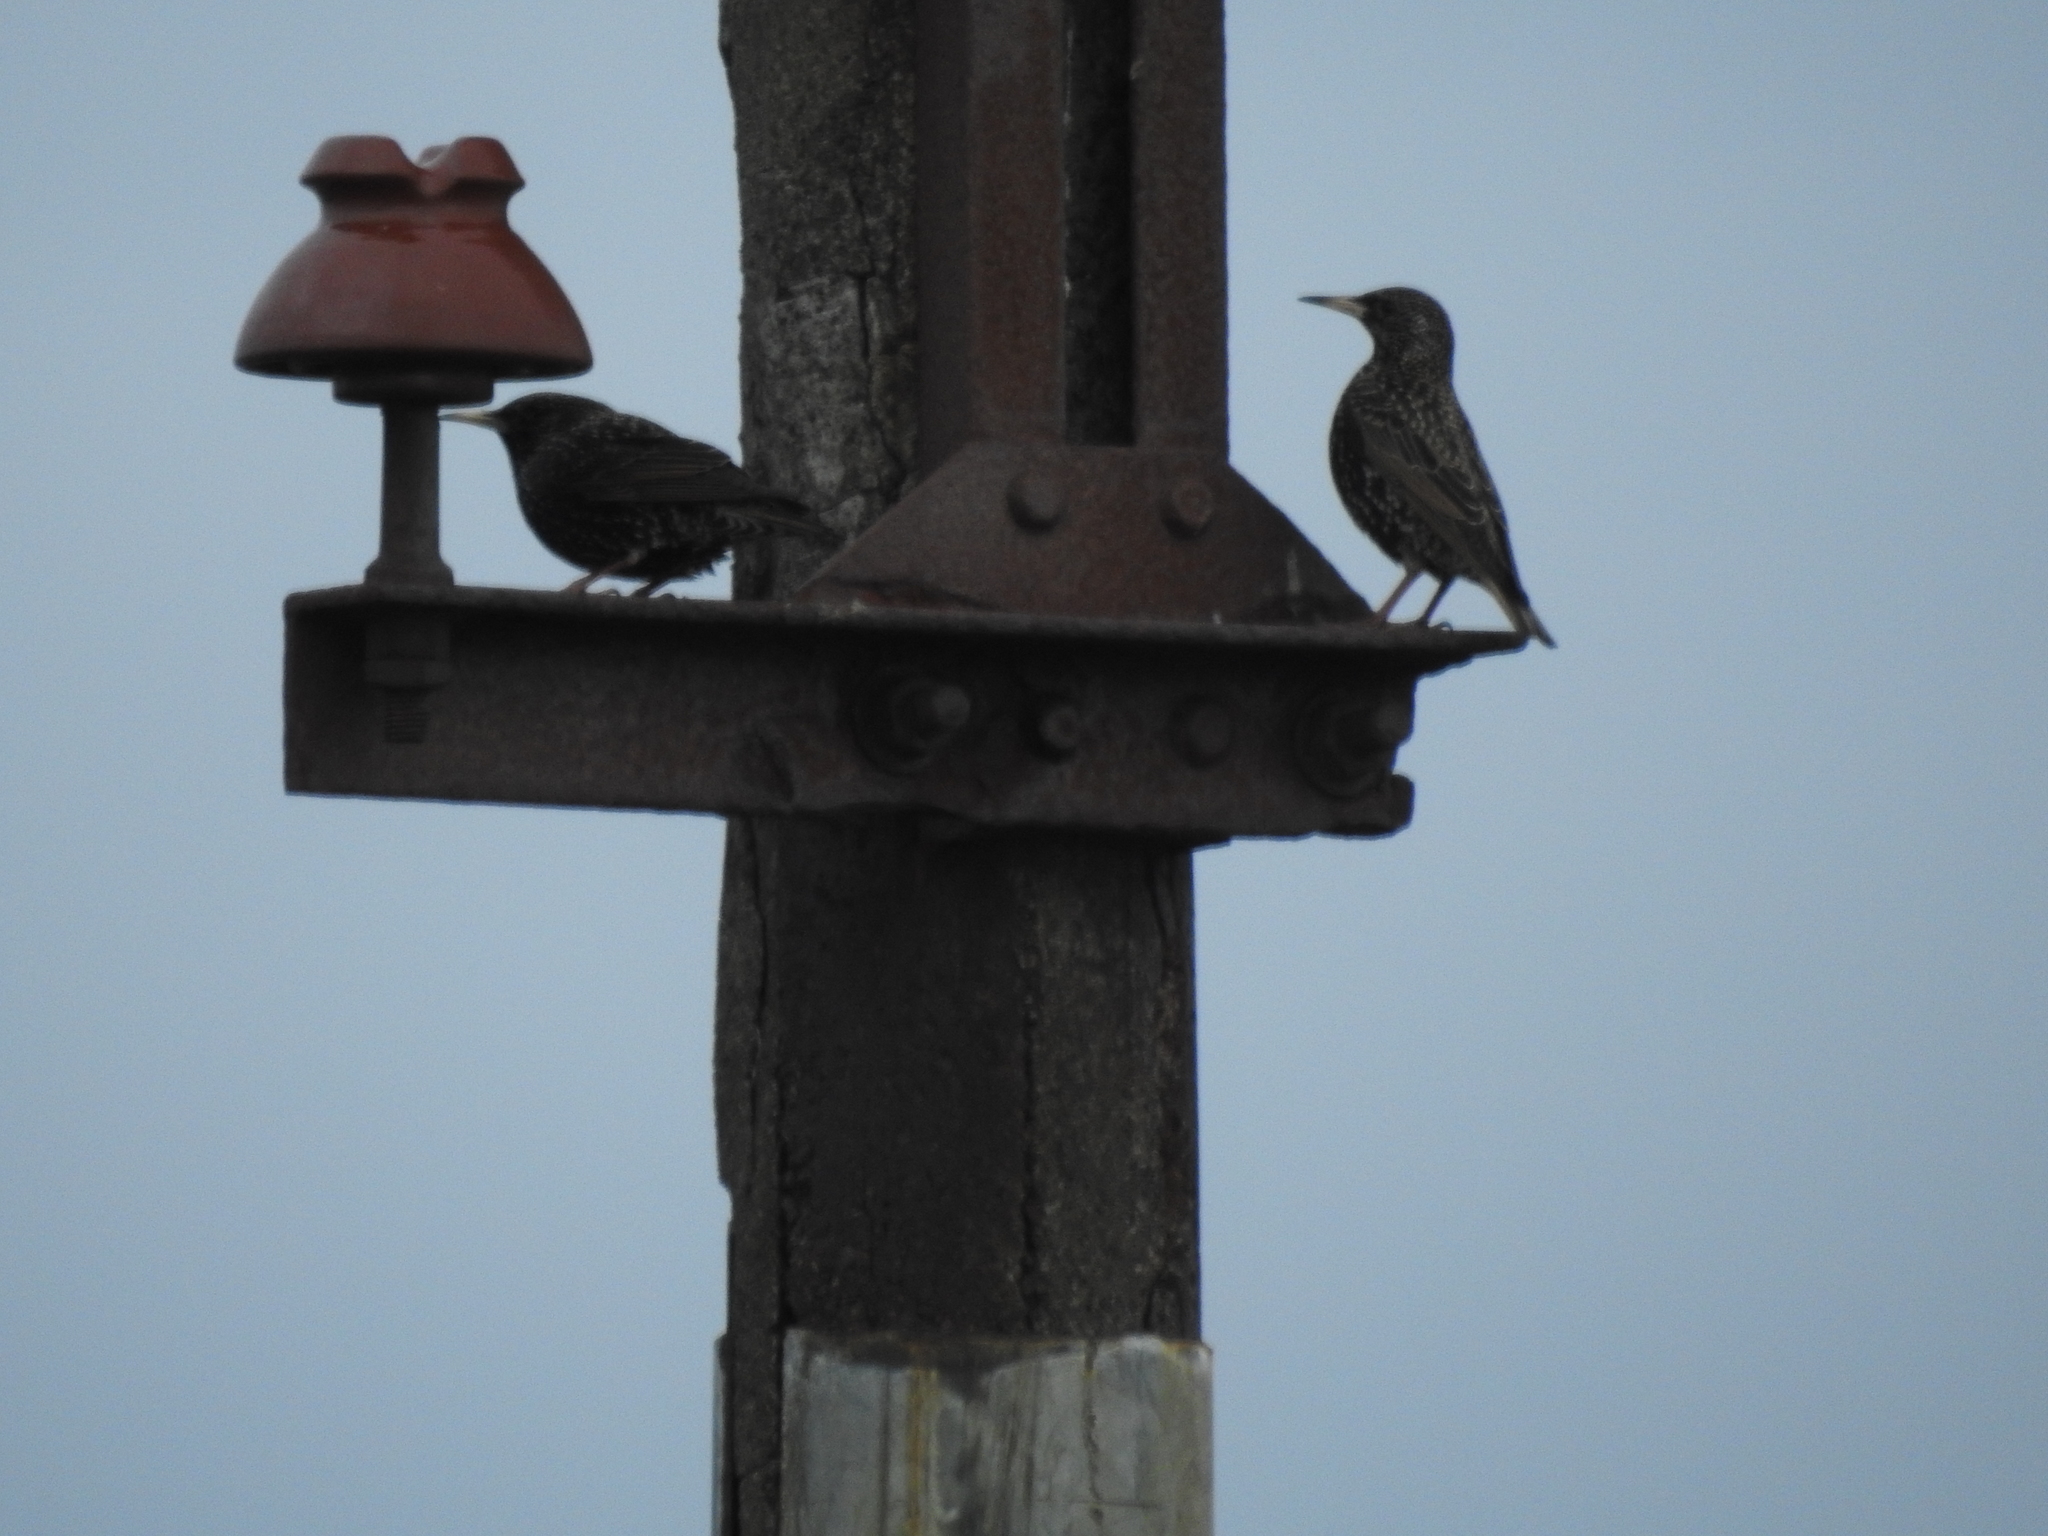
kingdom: Animalia
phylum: Chordata
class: Aves
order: Passeriformes
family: Sturnidae
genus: Sturnus
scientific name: Sturnus vulgaris
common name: Common starling
